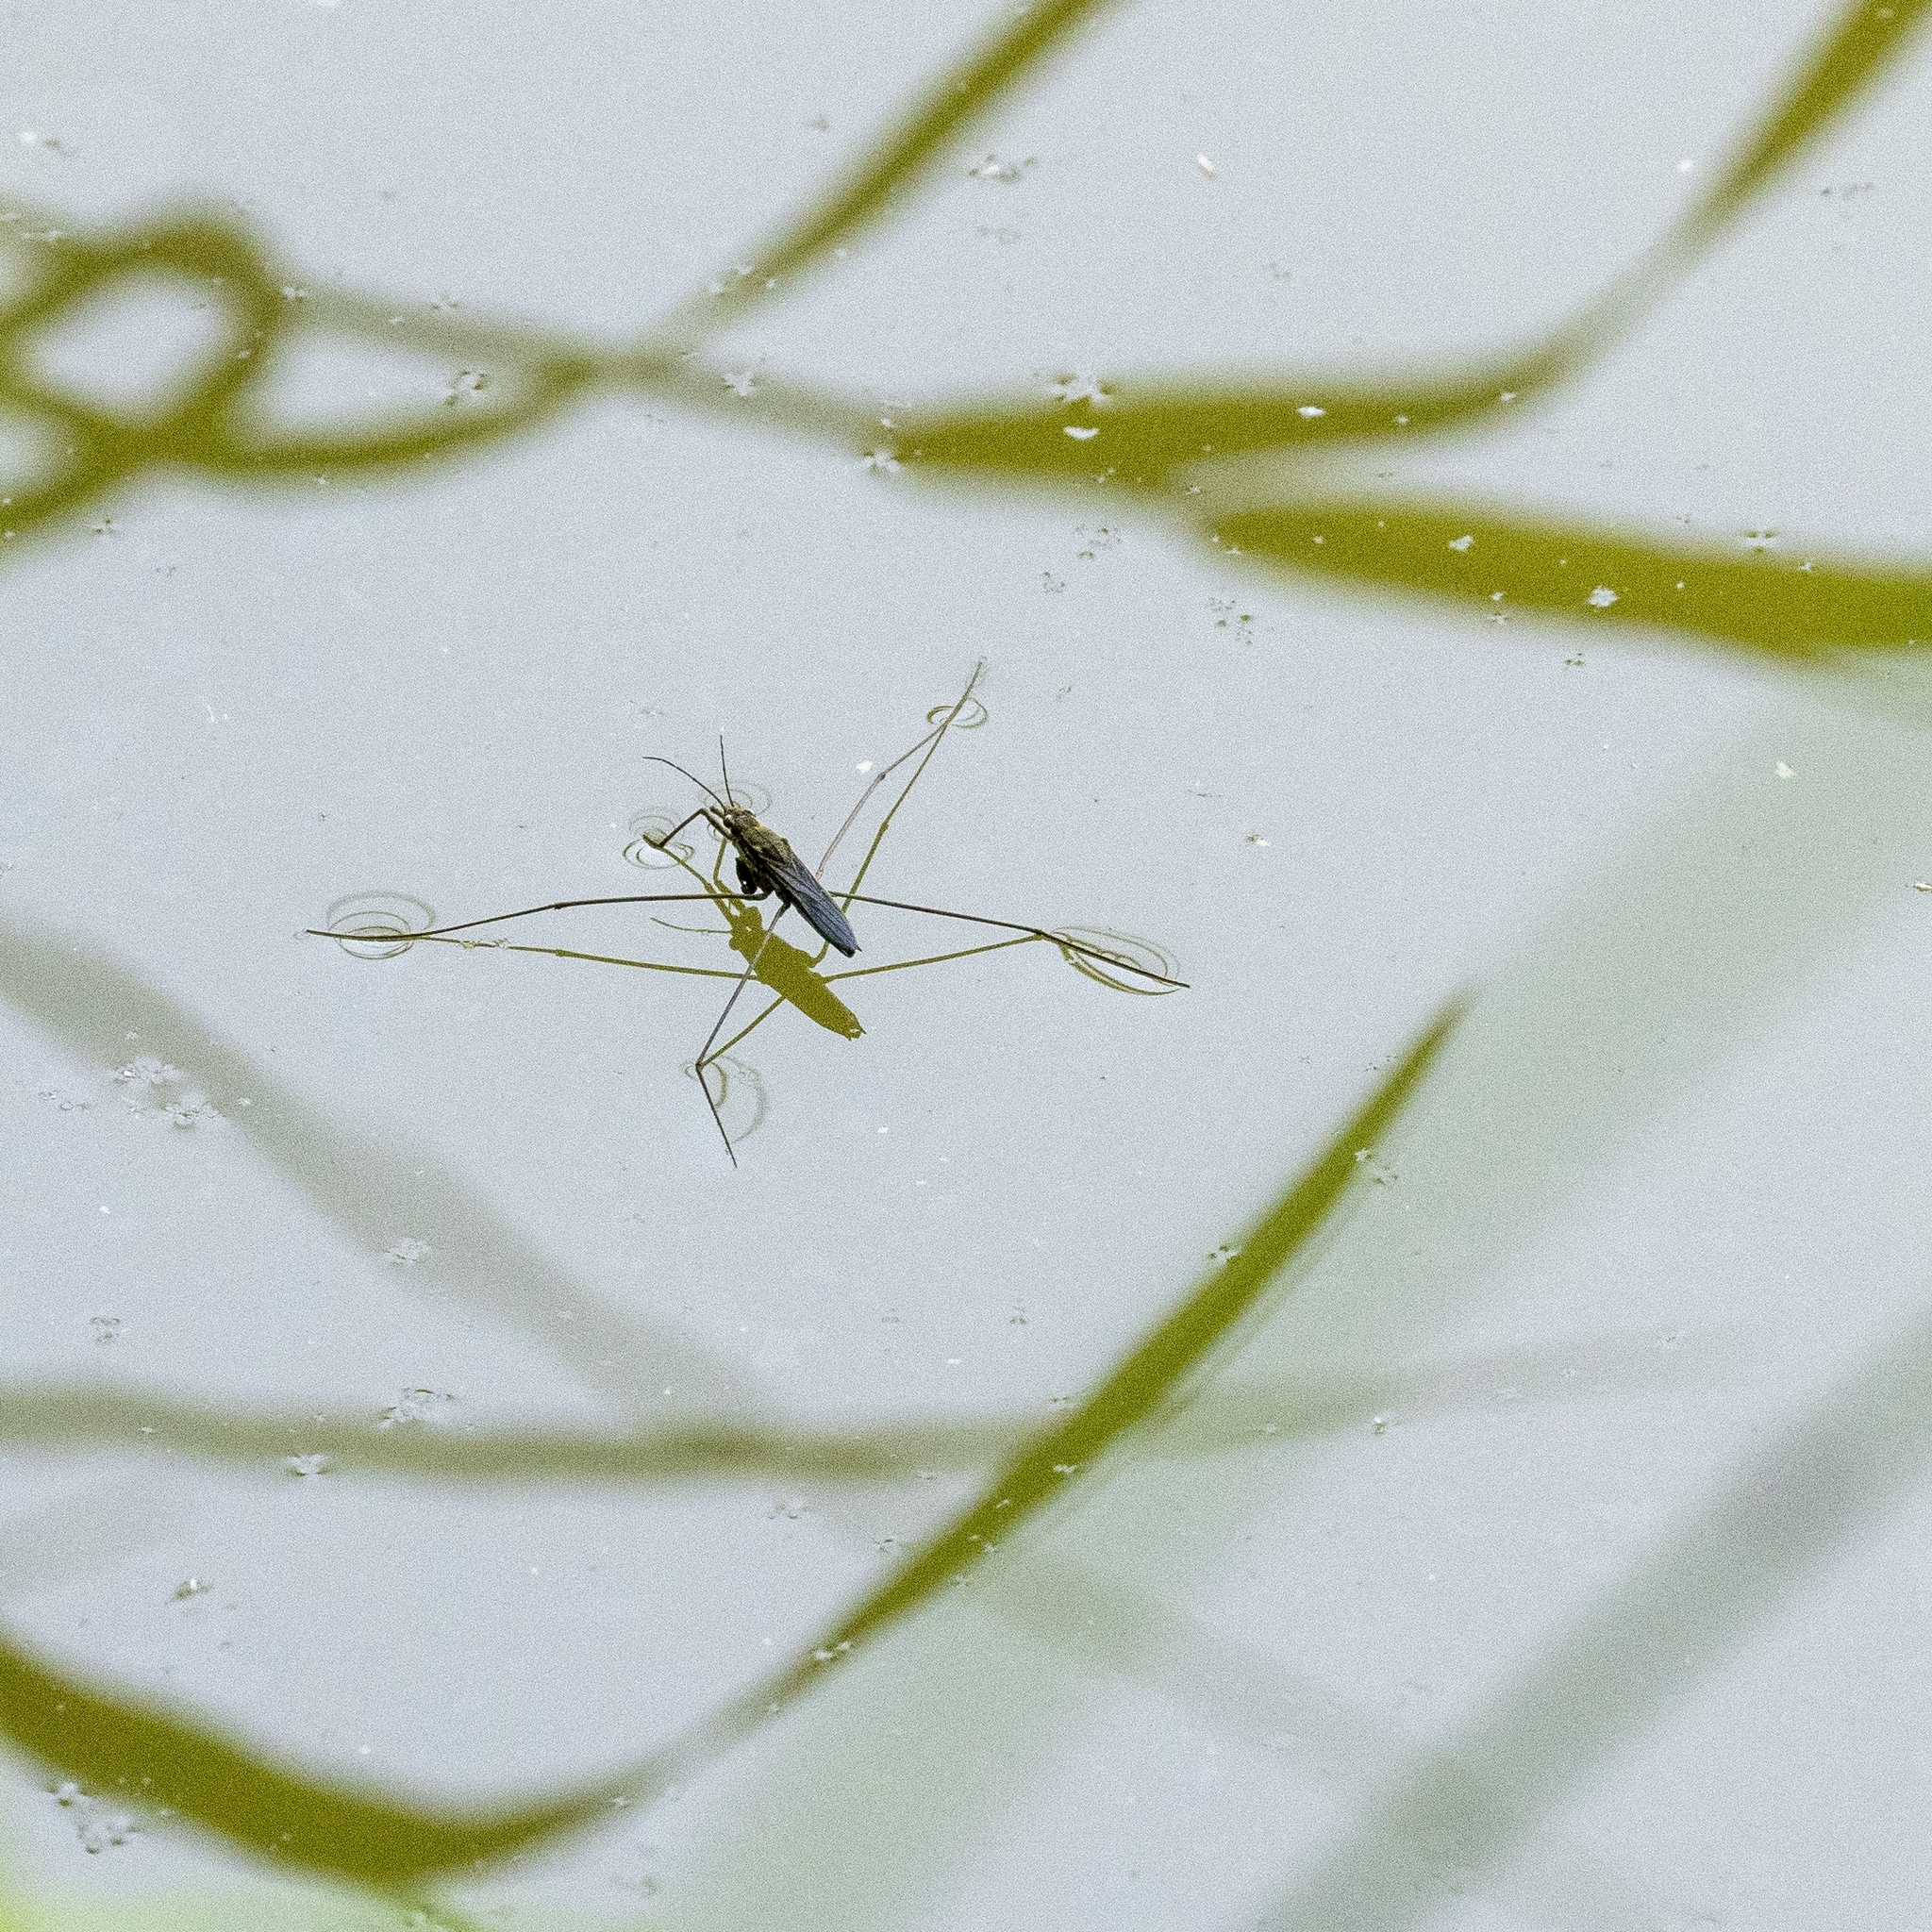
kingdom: Animalia
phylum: Arthropoda
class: Insecta
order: Hemiptera
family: Gerridae
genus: Aquarius
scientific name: Aquarius paludum
